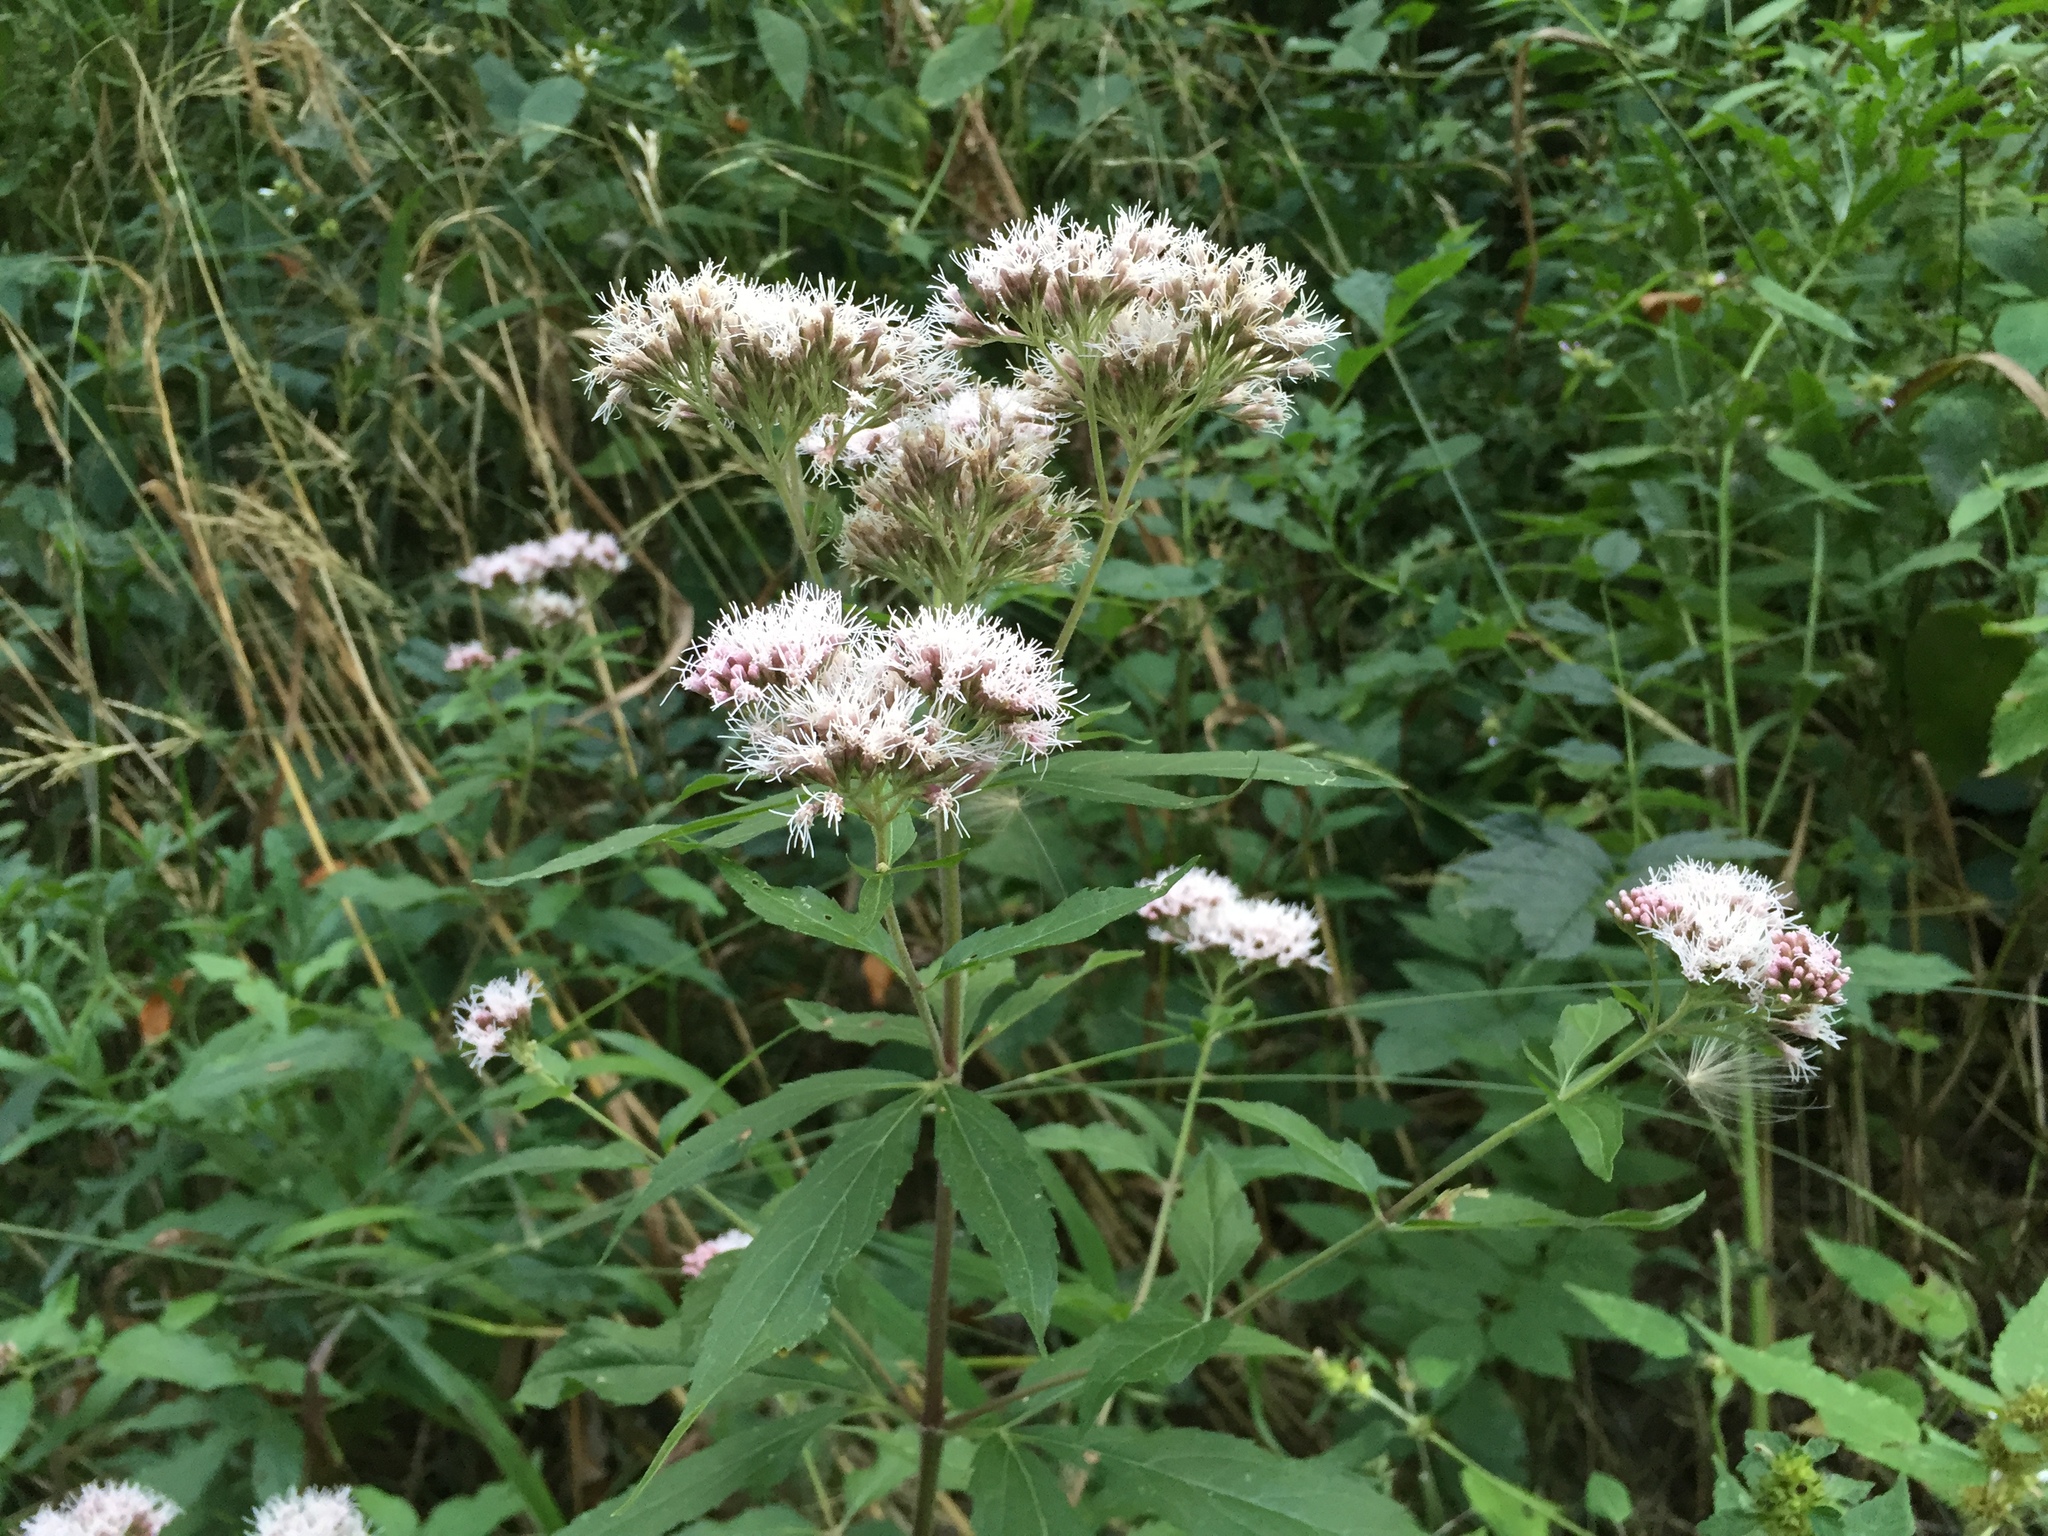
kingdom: Plantae
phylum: Tracheophyta
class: Magnoliopsida
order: Asterales
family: Asteraceae
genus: Eupatorium
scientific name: Eupatorium cannabinum
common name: Hemp-agrimony
